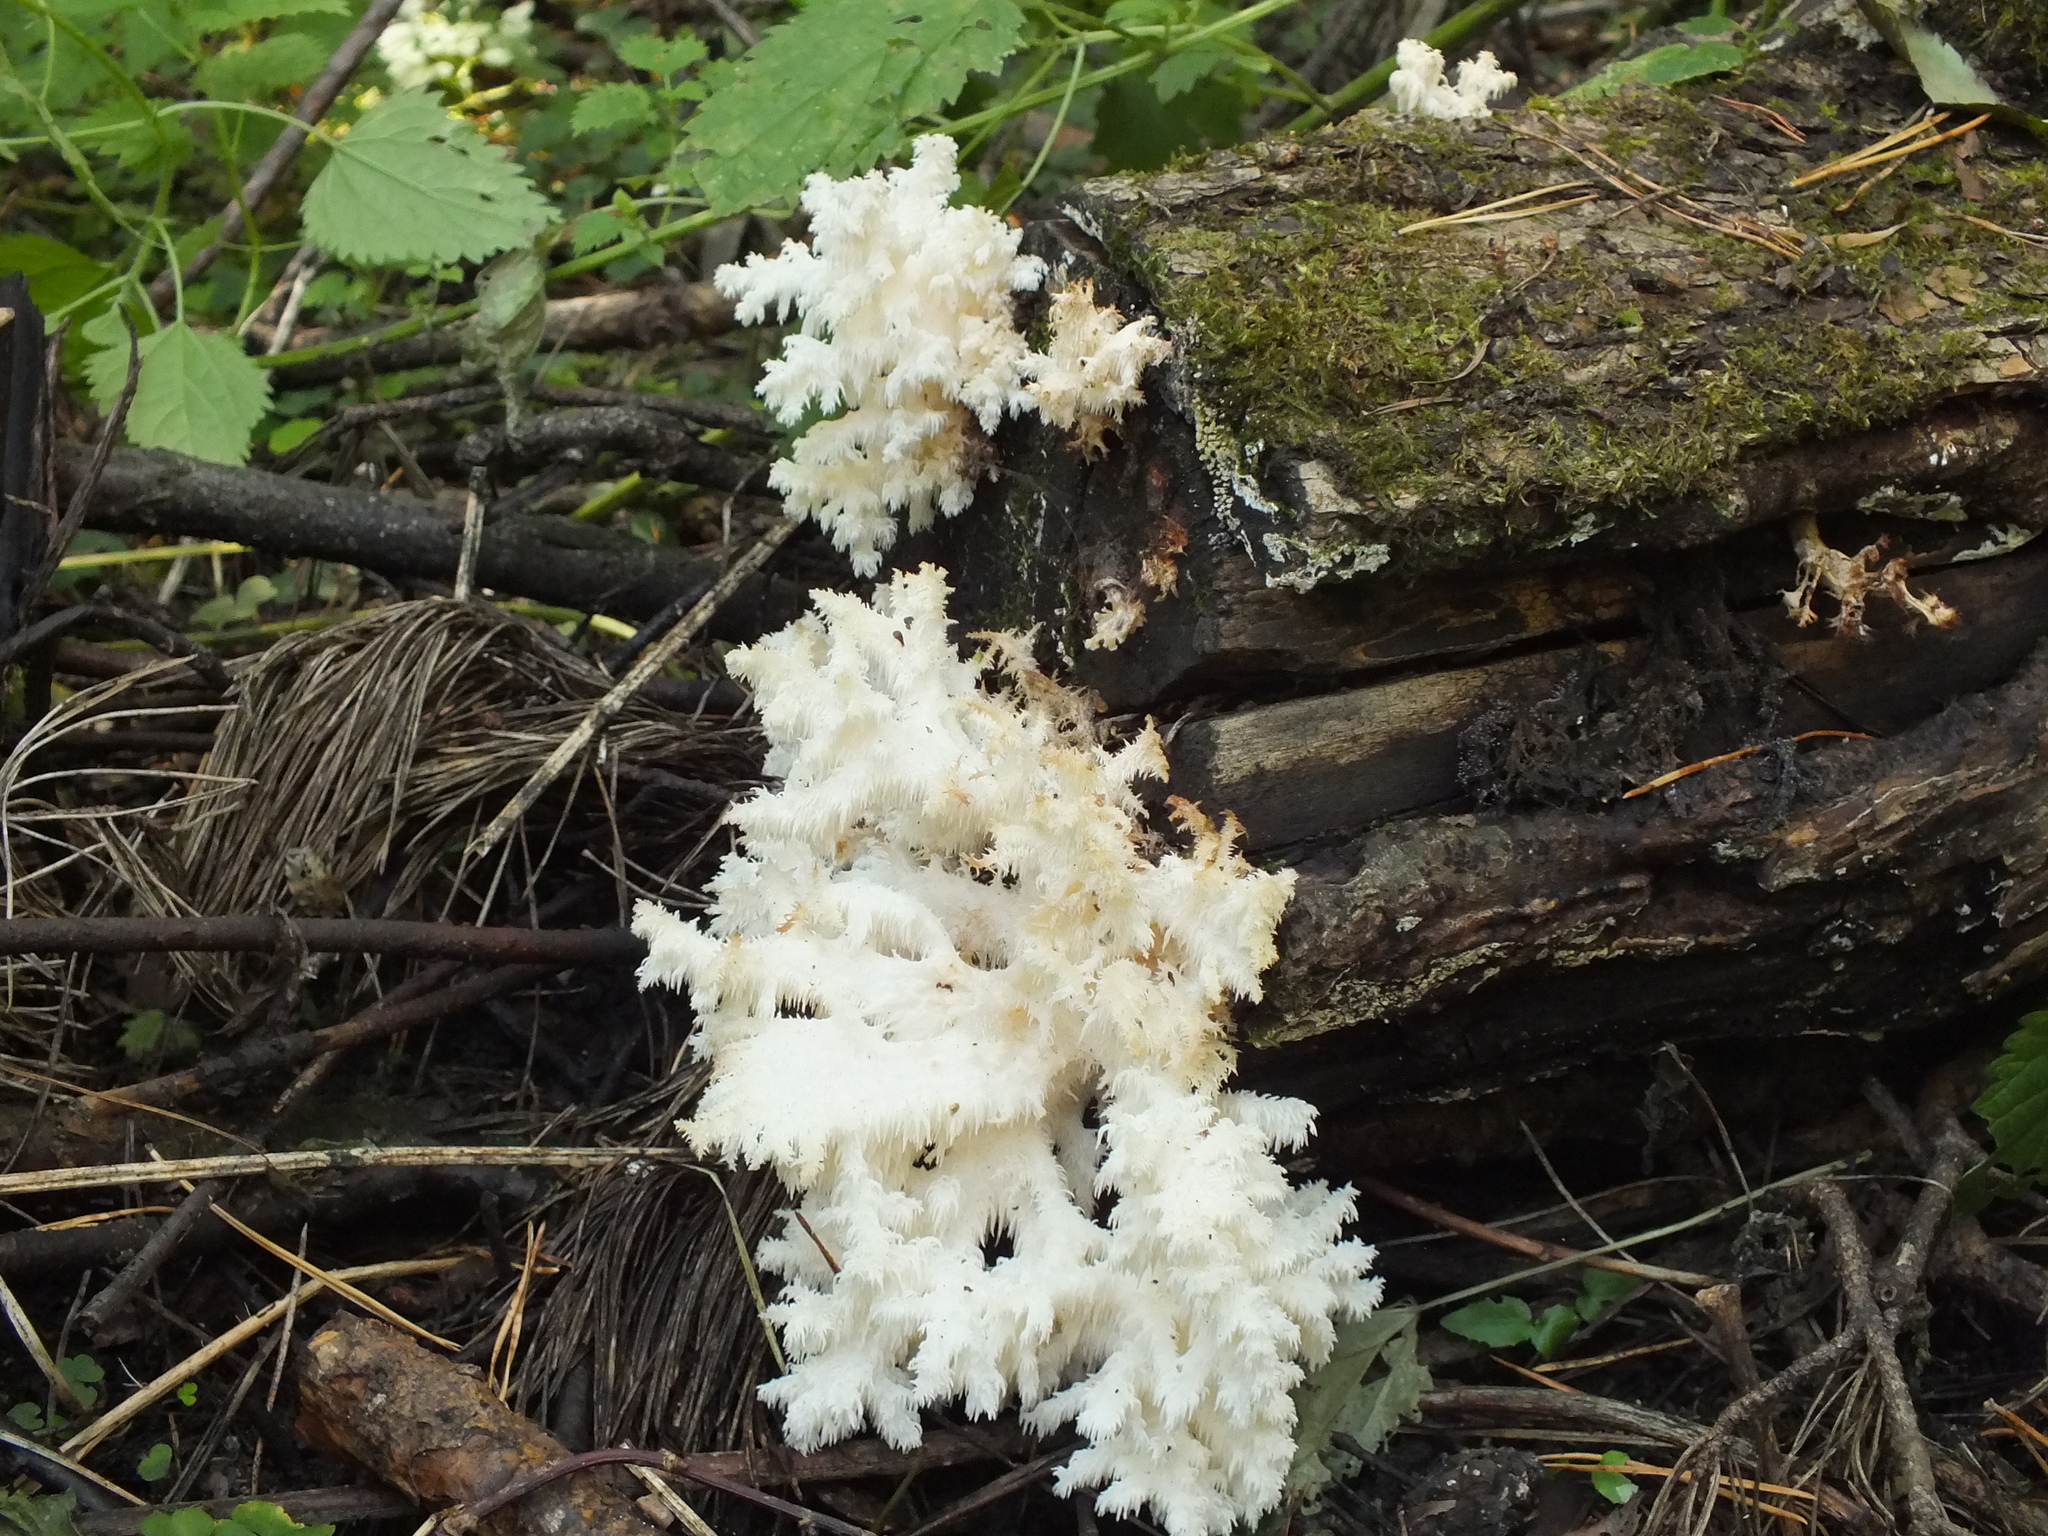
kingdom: Fungi
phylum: Basidiomycota
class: Agaricomycetes
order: Russulales
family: Hericiaceae
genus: Hericium
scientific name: Hericium coralloides
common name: Coral tooth
